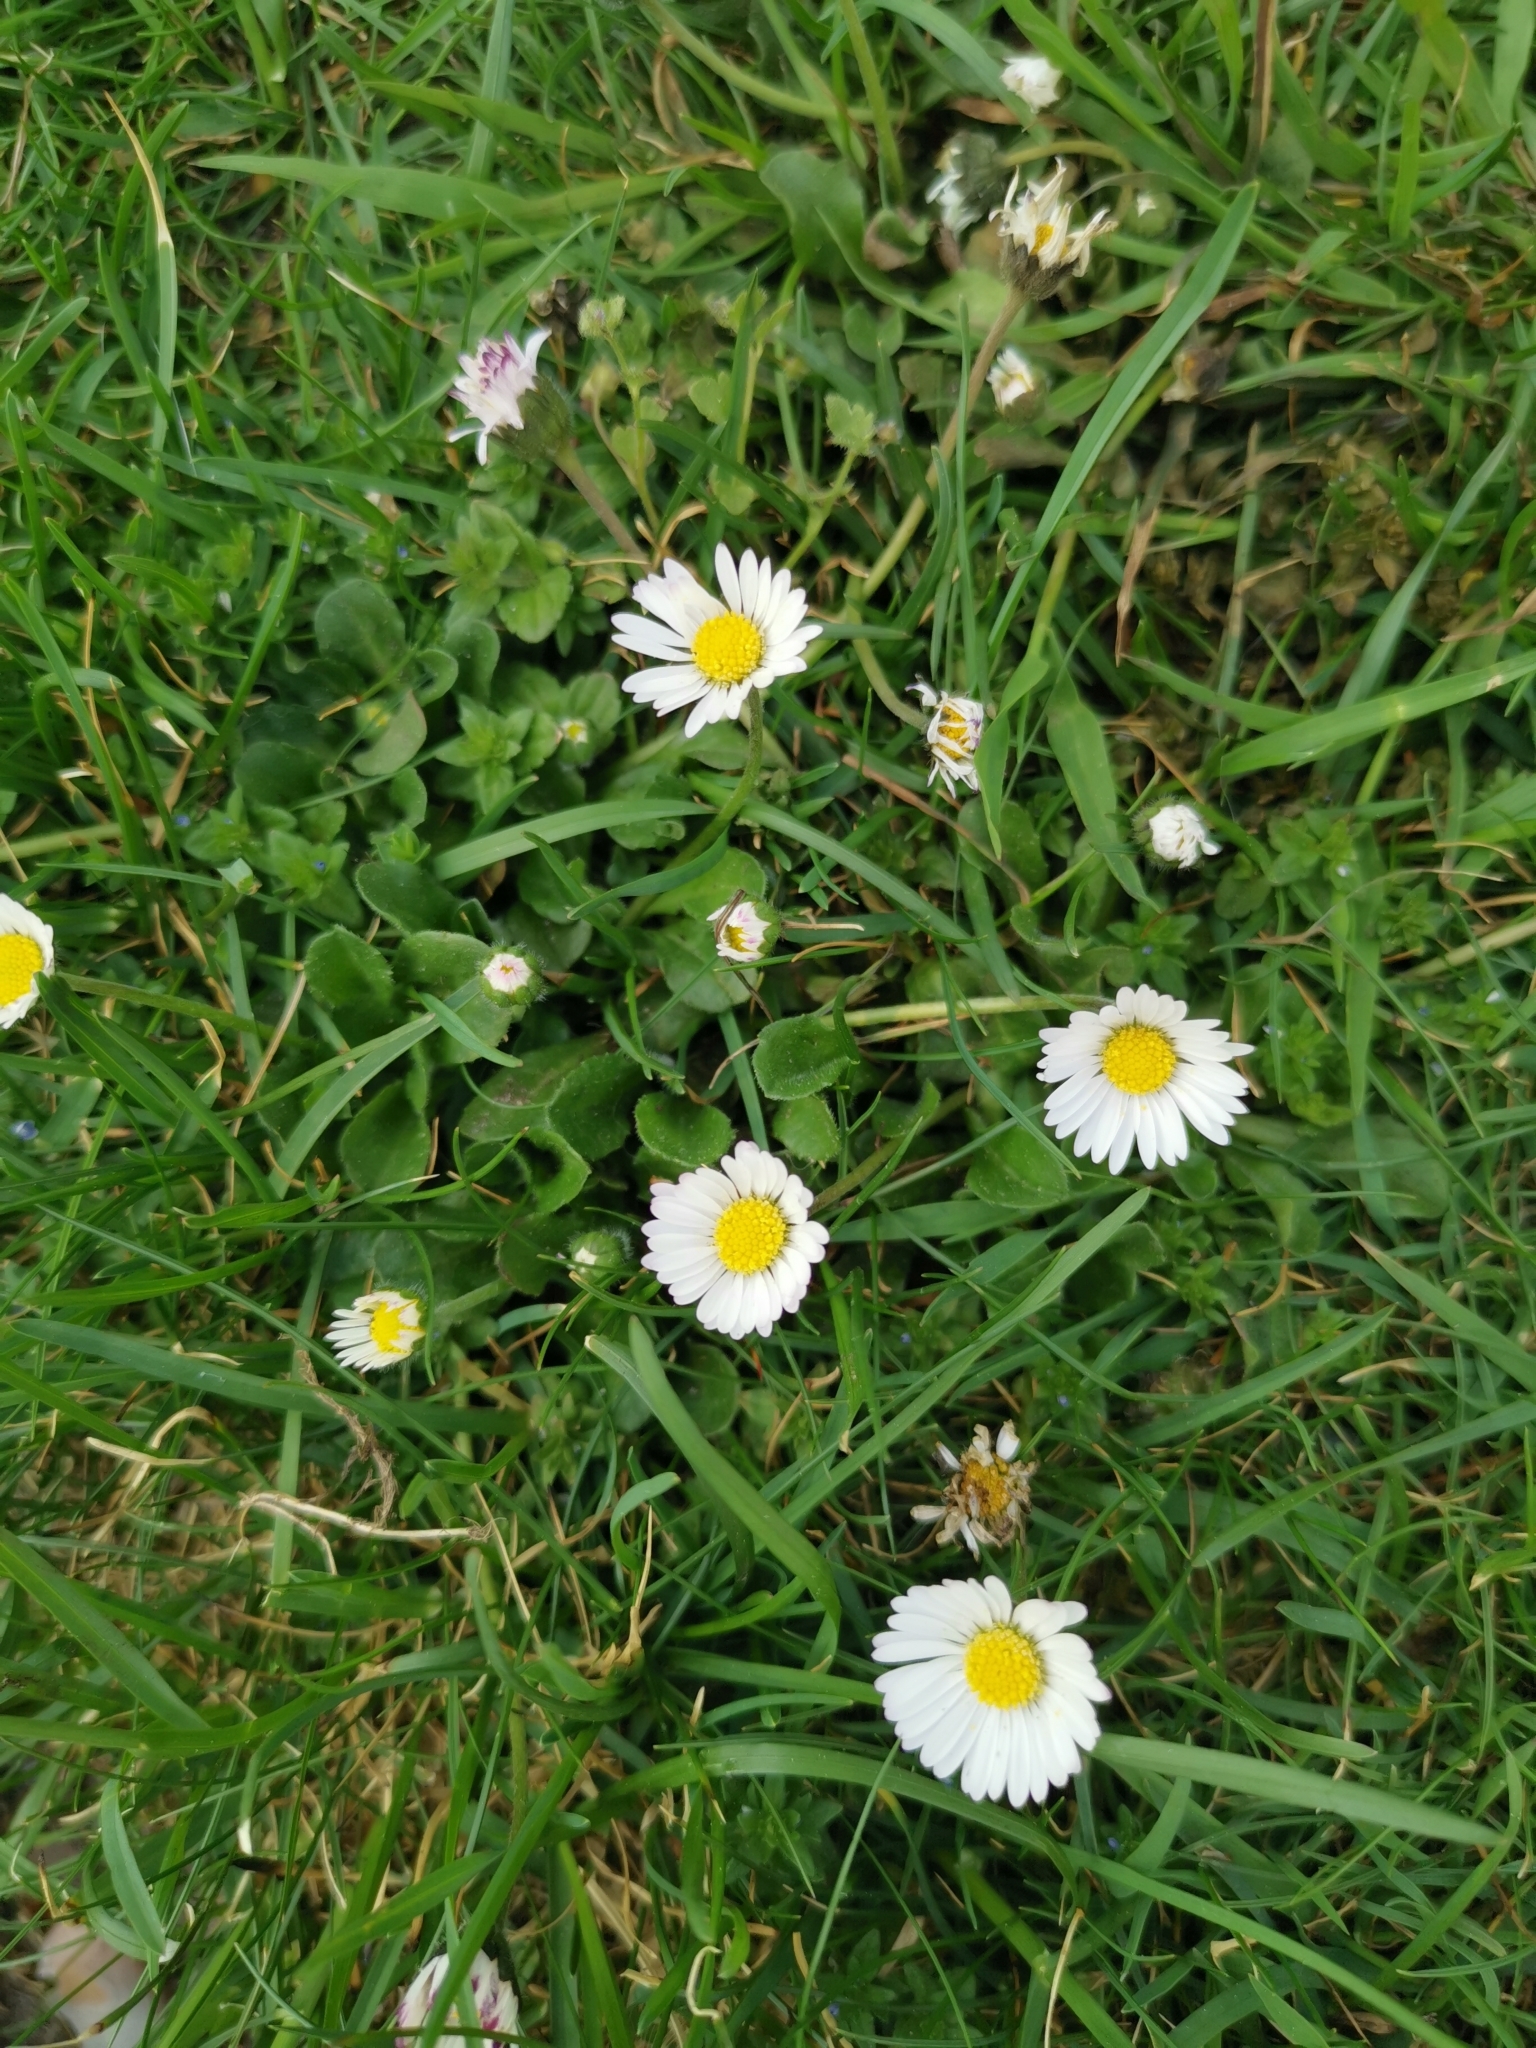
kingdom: Plantae
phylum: Tracheophyta
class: Magnoliopsida
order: Asterales
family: Asteraceae
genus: Bellis
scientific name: Bellis perennis
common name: Lawndaisy
